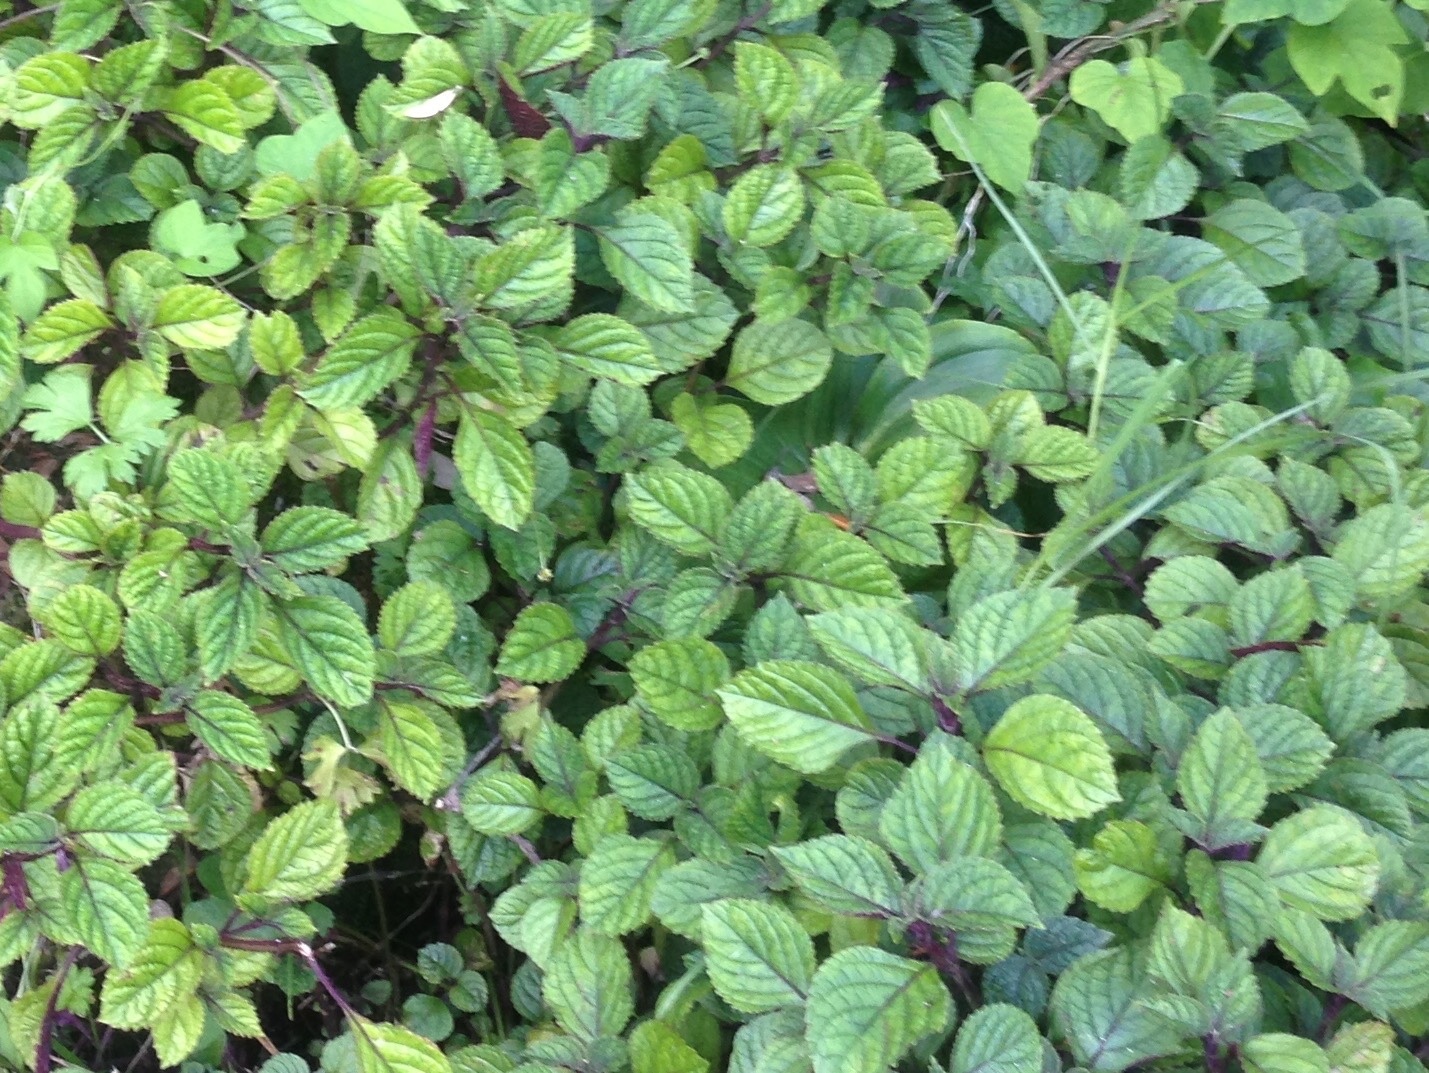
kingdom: Plantae
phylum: Tracheophyta
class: Magnoliopsida
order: Lamiales
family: Lamiaceae
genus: Plectranthus
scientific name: Plectranthus ciliatus
